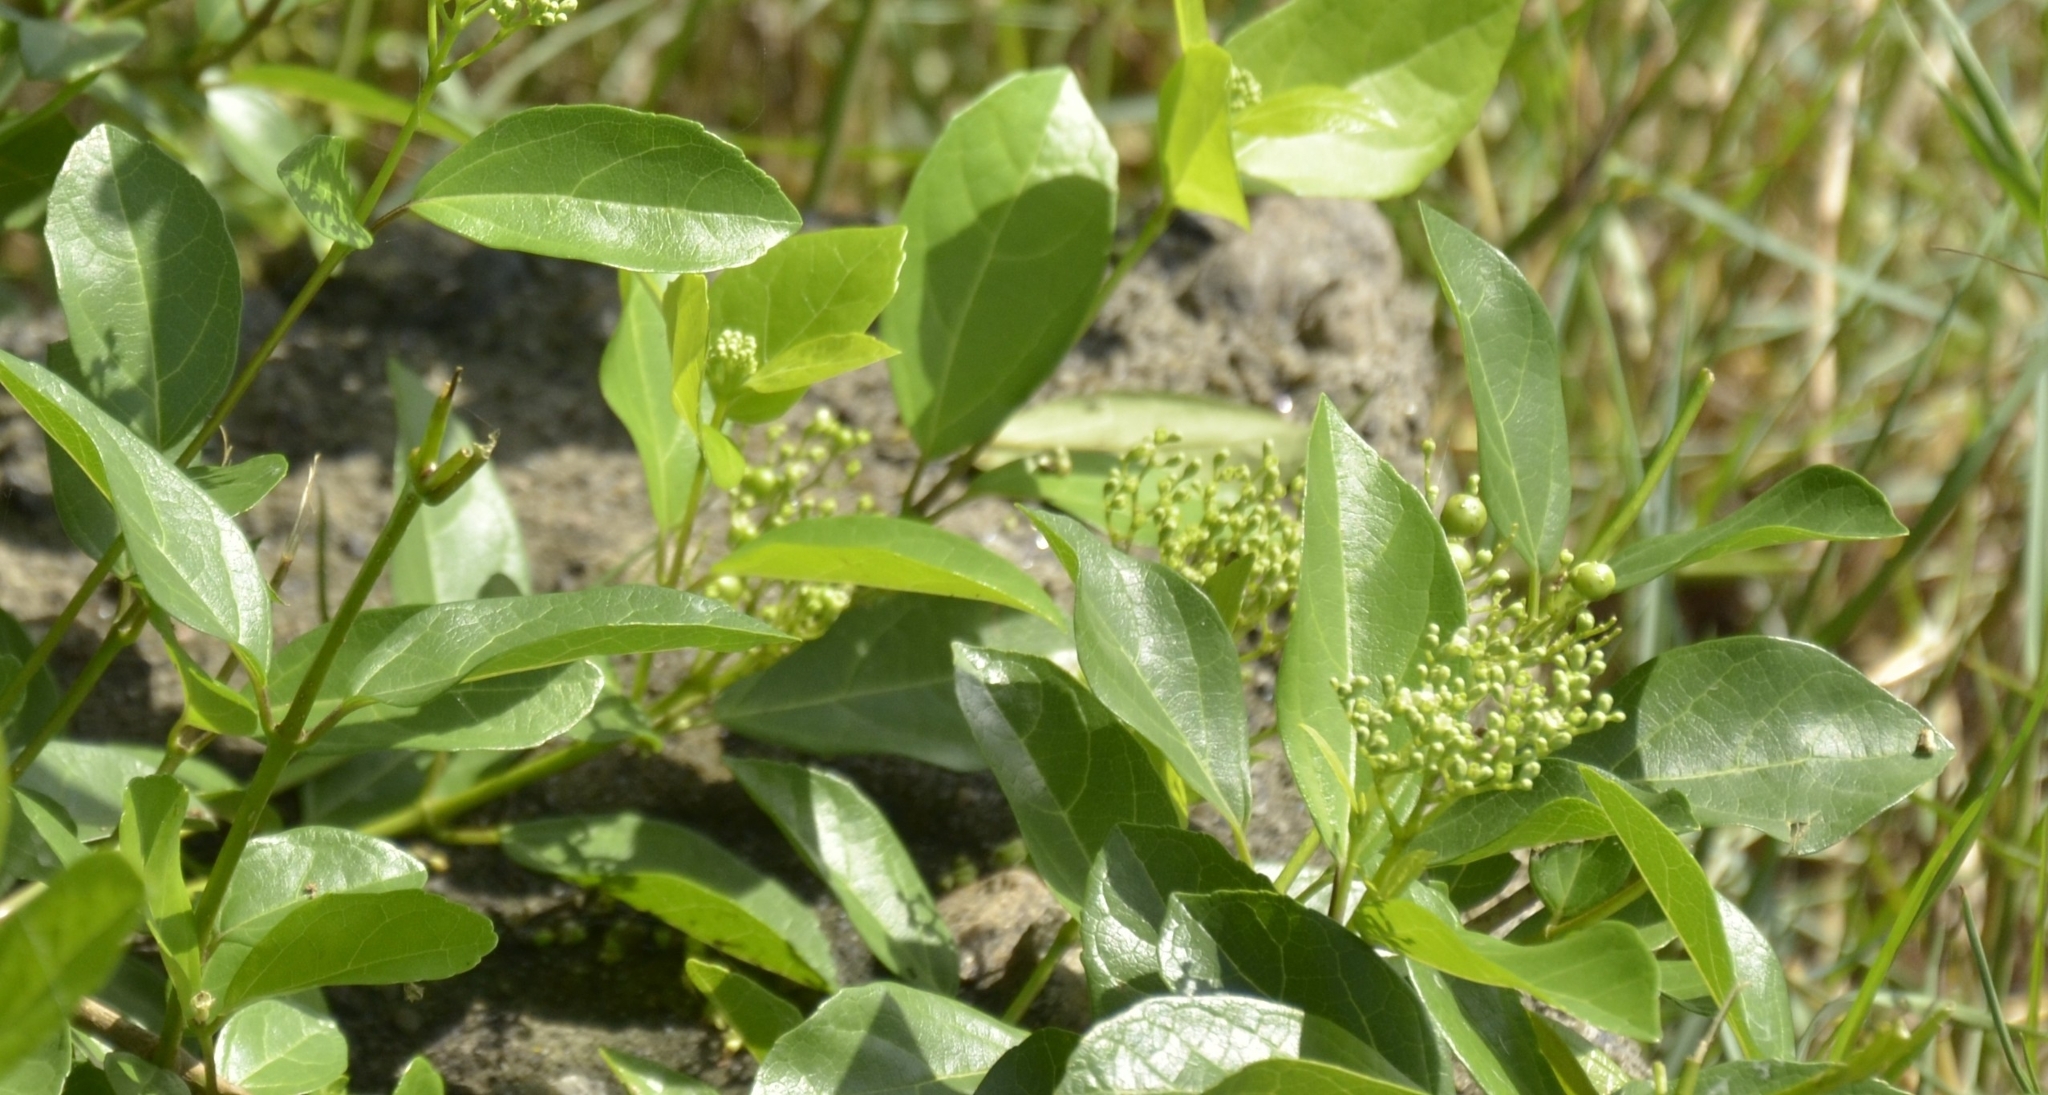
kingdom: Plantae
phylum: Tracheophyta
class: Magnoliopsida
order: Lamiales
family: Lamiaceae
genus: Premna
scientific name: Premna serratifolia
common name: Bastard guelder
